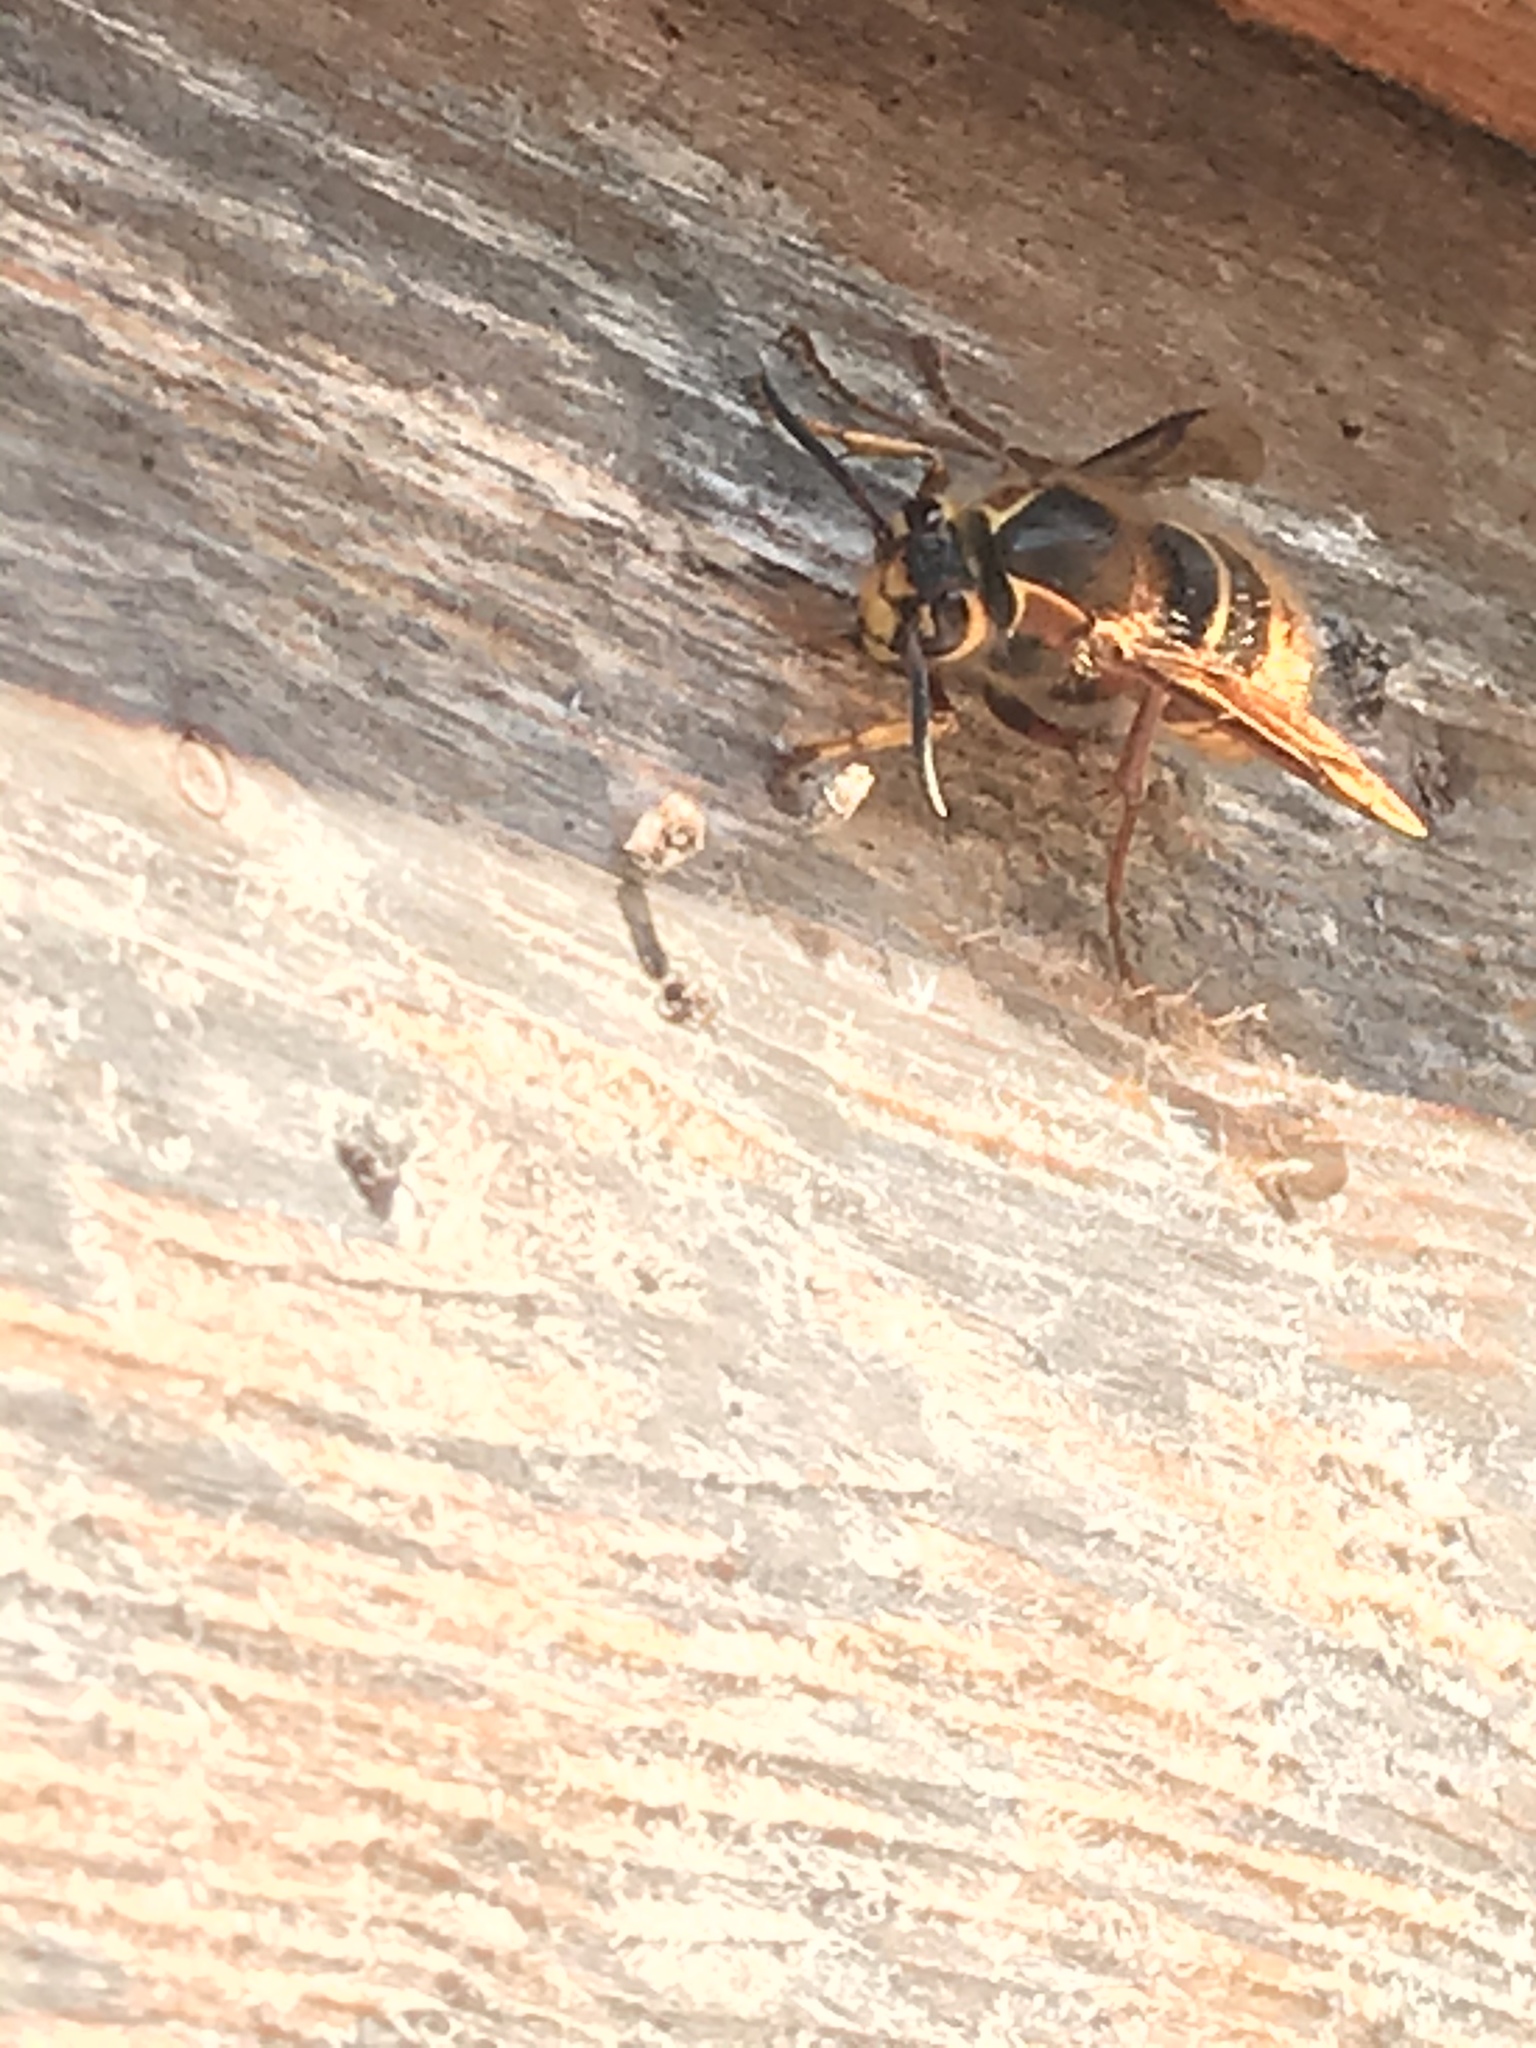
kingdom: Animalia
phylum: Arthropoda
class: Insecta
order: Hymenoptera
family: Vespidae
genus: Dolichovespula
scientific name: Dolichovespula media
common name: Median wasp
